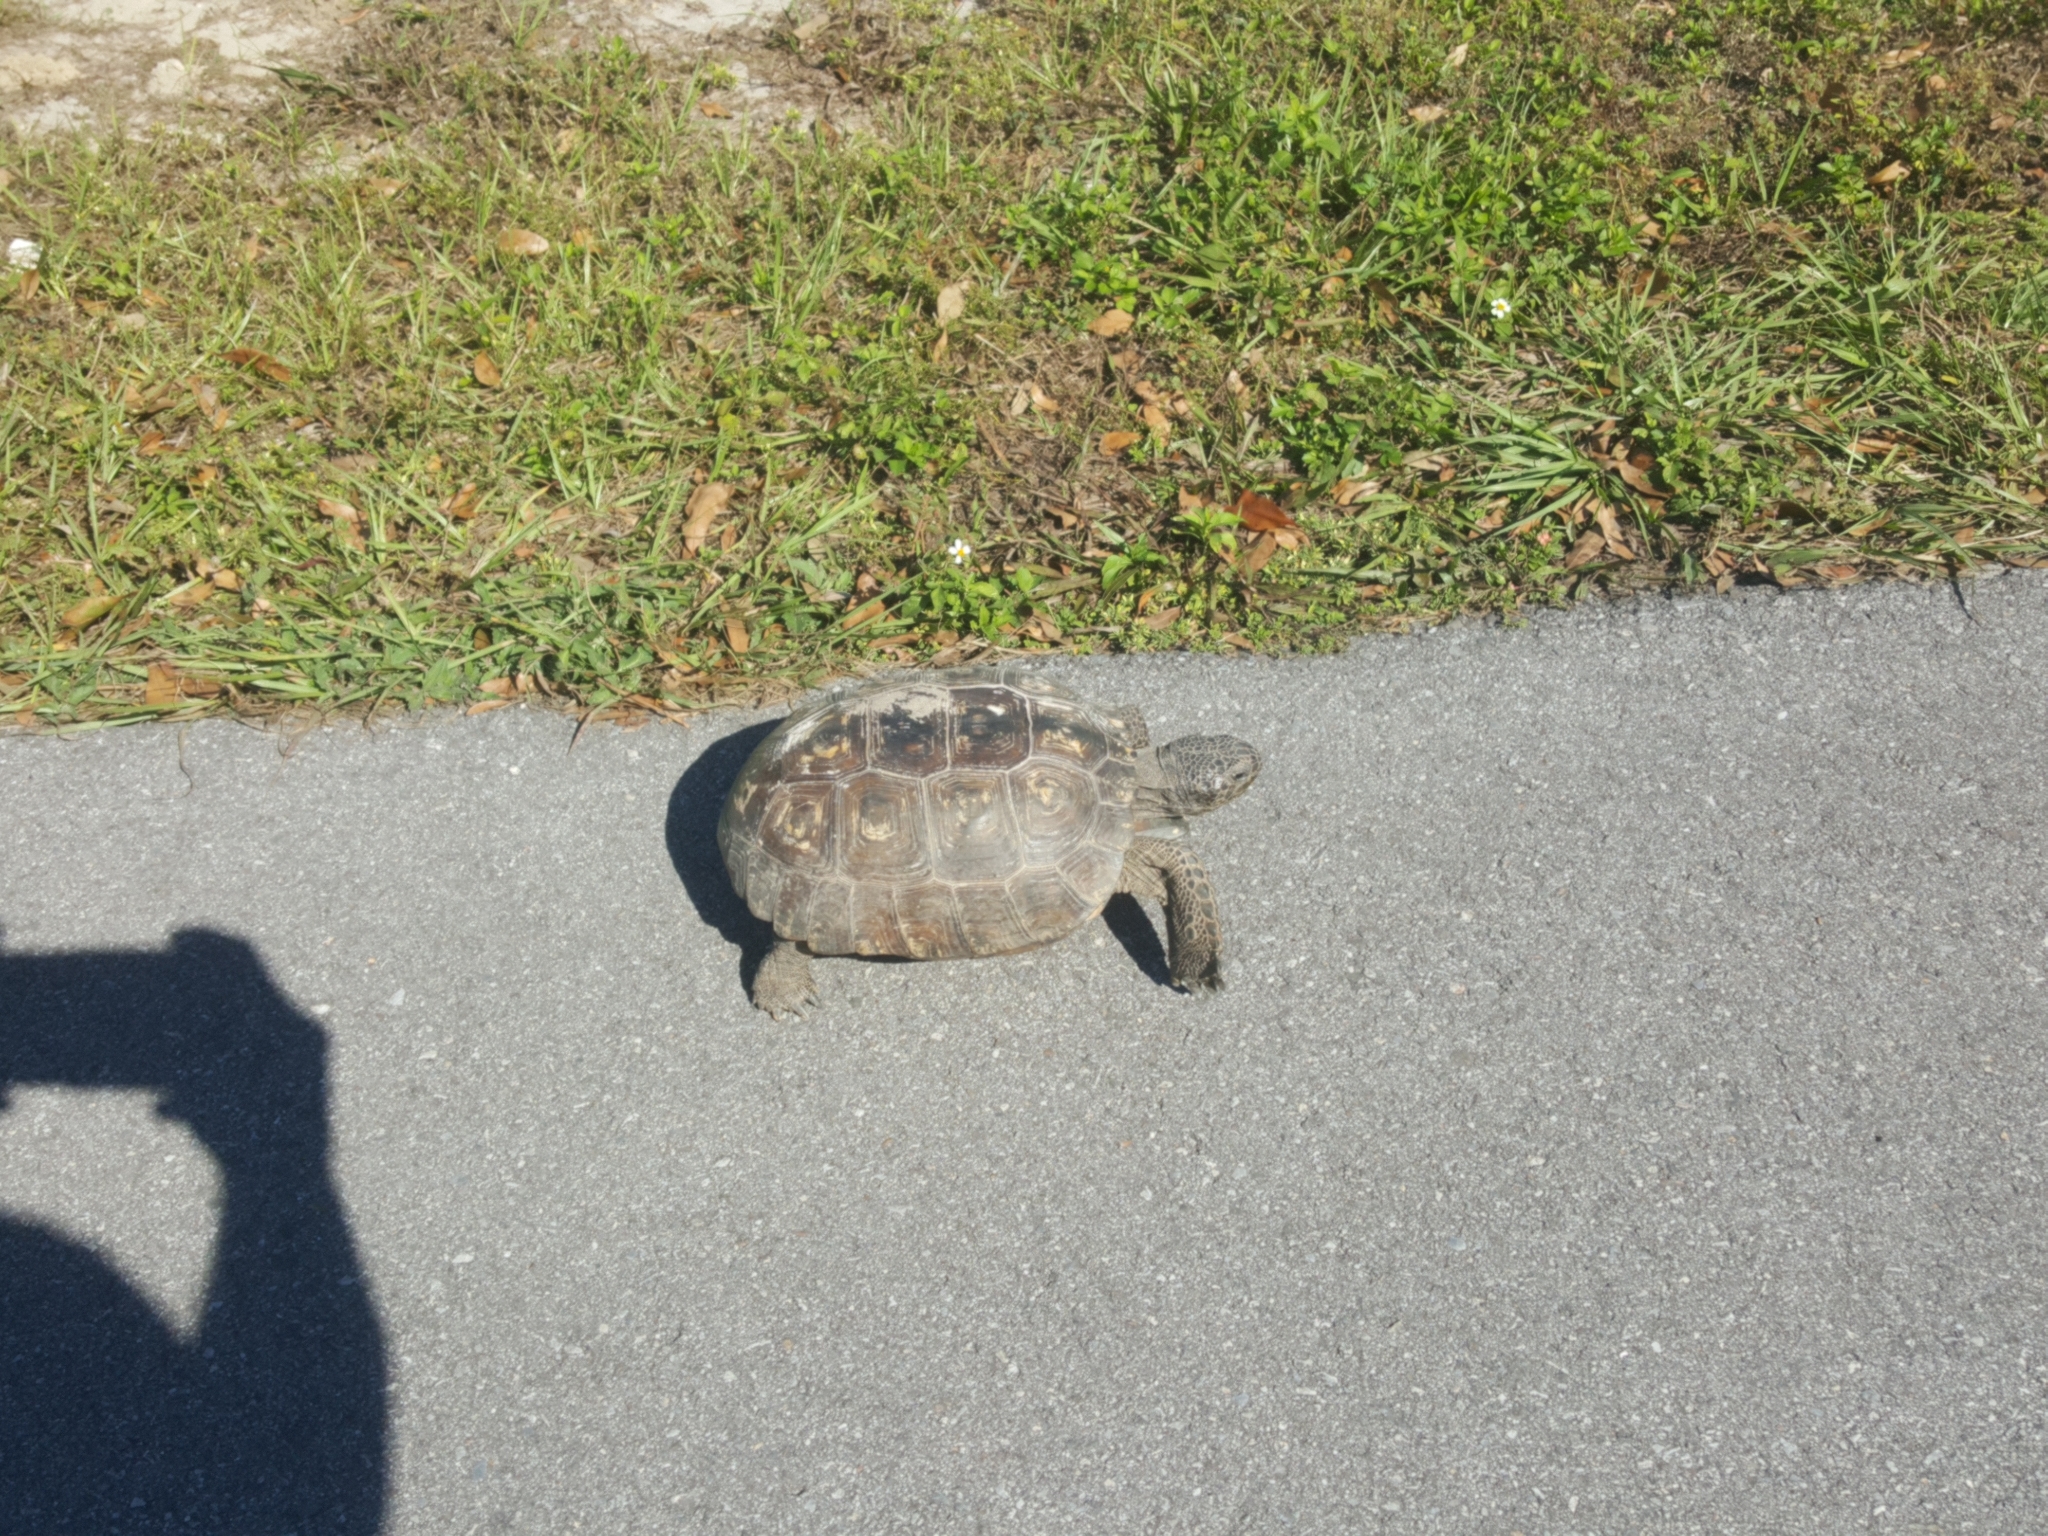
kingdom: Animalia
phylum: Chordata
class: Testudines
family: Testudinidae
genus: Gopherus
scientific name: Gopherus polyphemus
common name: Florida gopher tortoise
